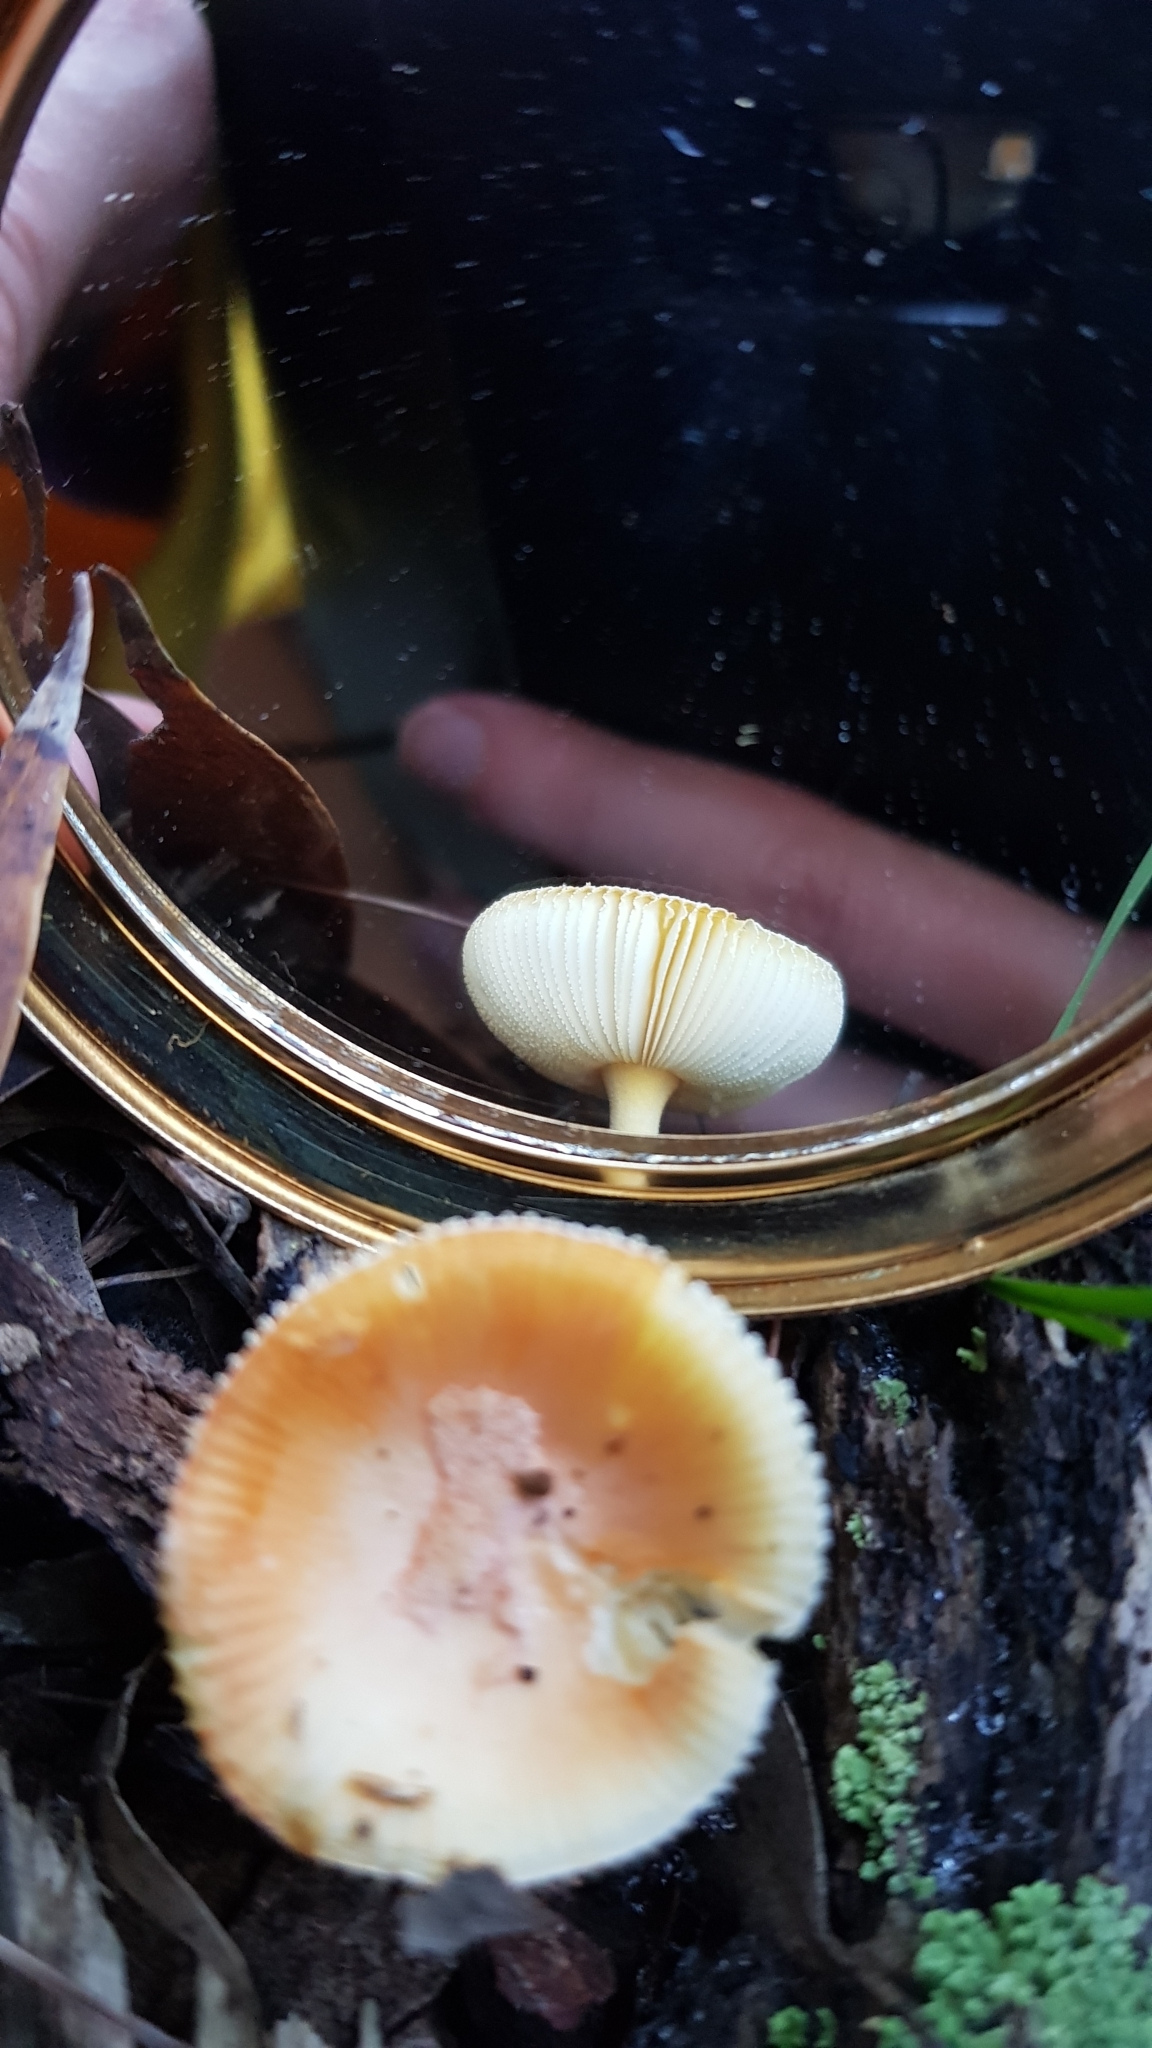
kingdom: Fungi
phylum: Basidiomycota
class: Agaricomycetes
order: Agaricales
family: Amanitaceae
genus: Amanita
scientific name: Amanita xanthocephala
